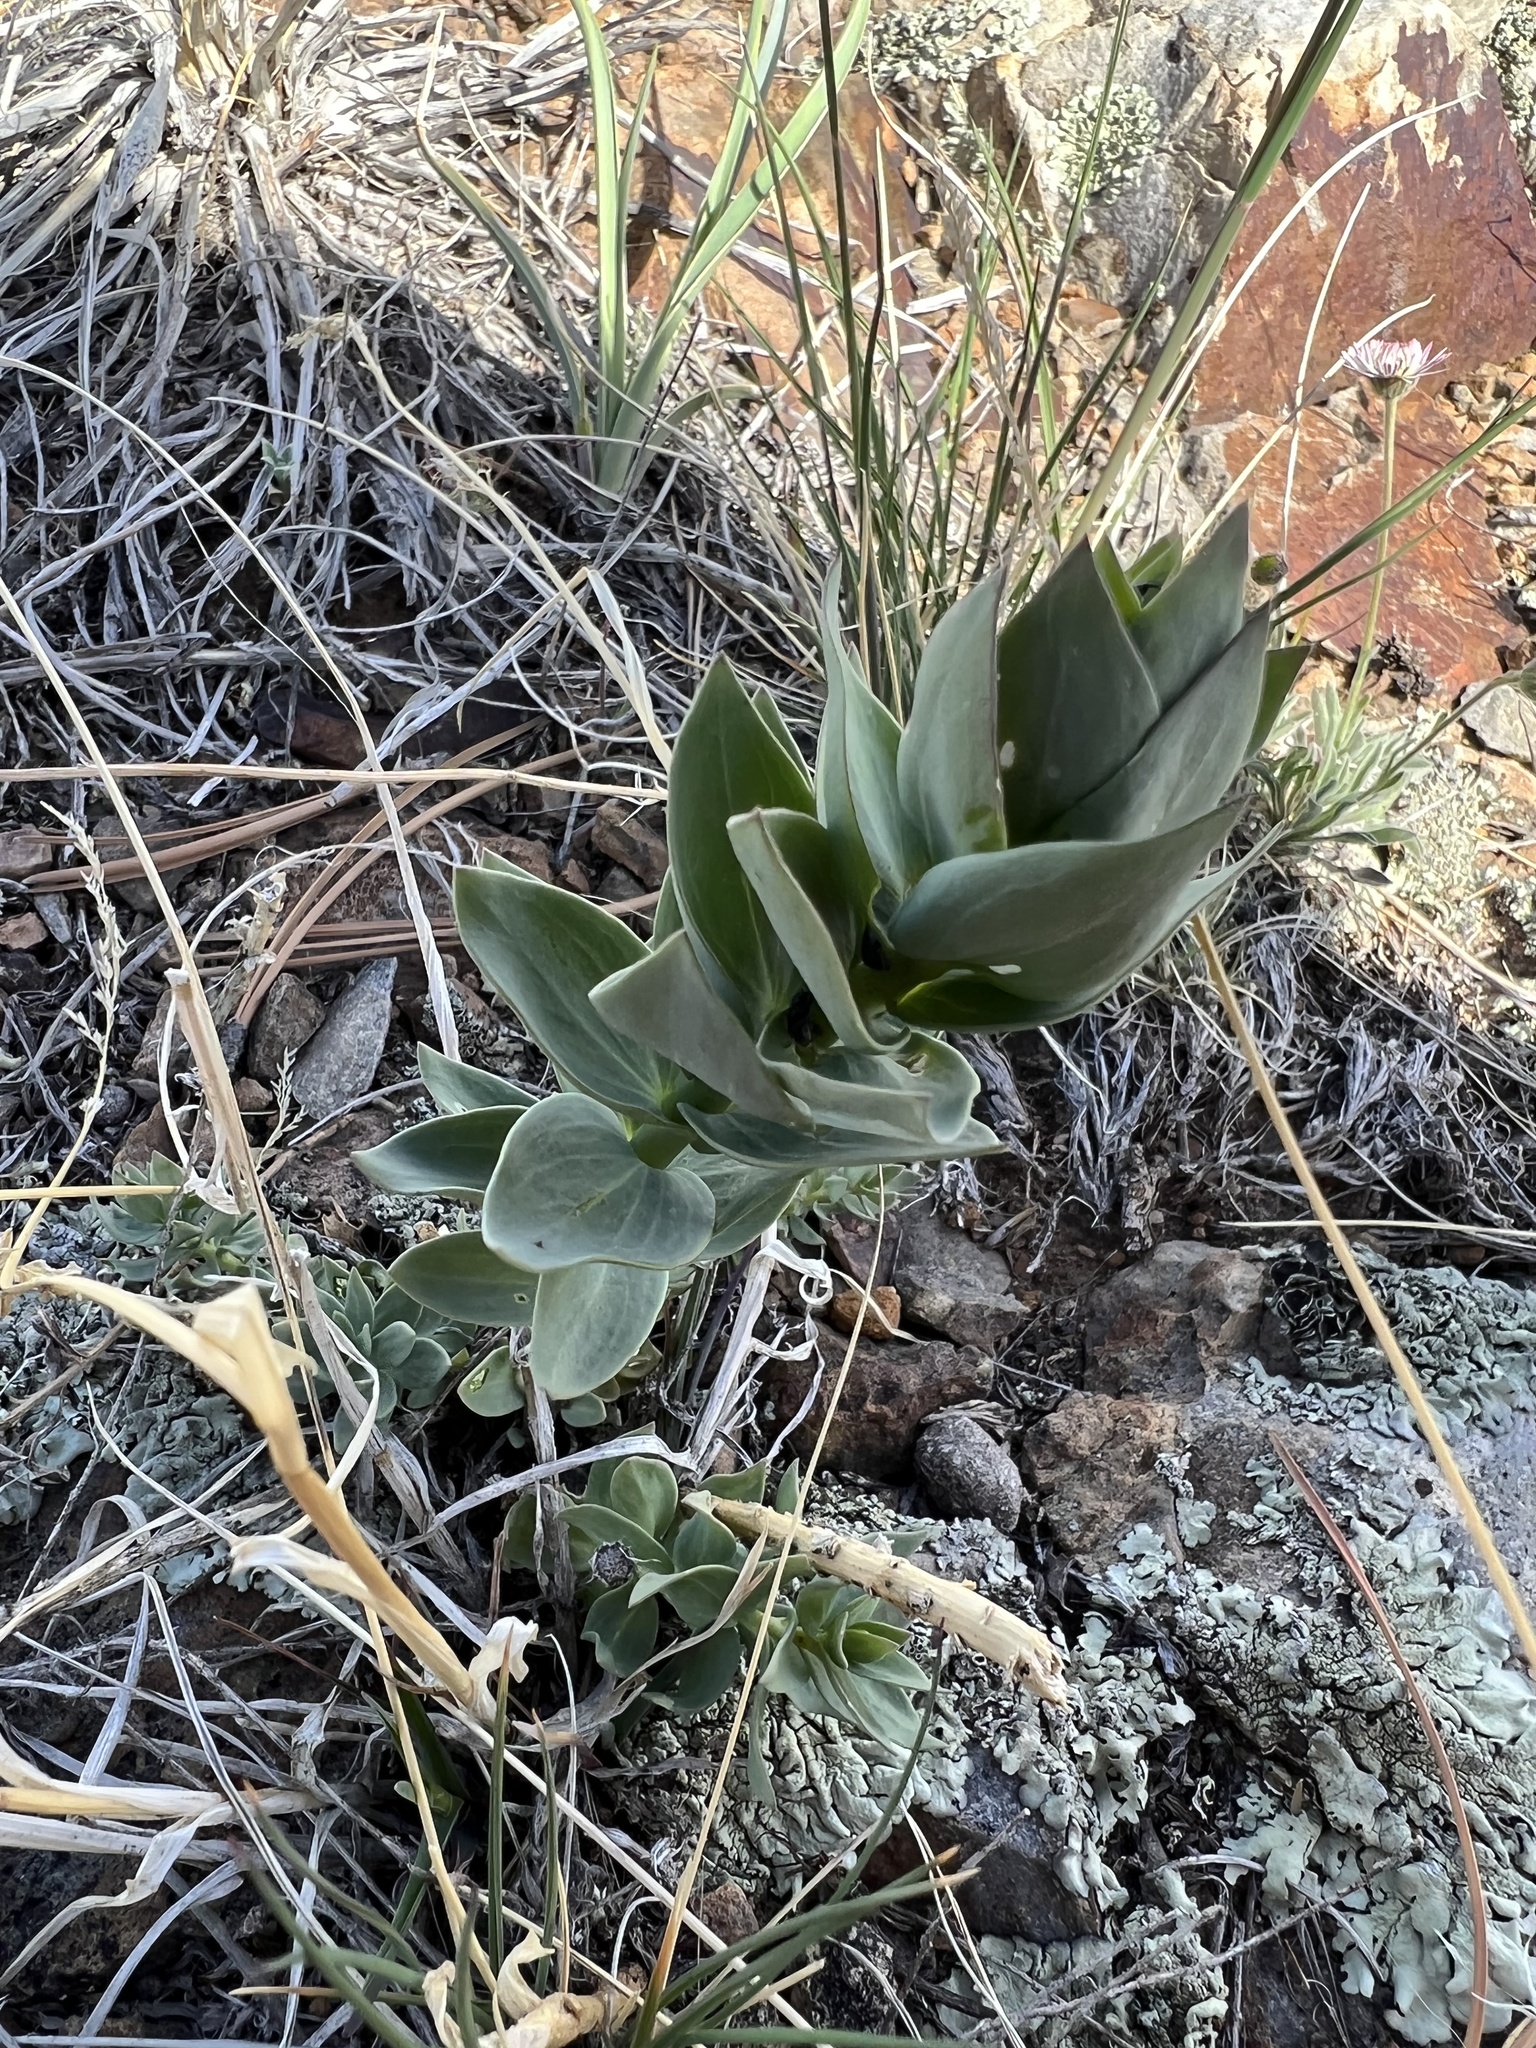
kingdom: Plantae
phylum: Tracheophyta
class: Magnoliopsida
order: Lamiales
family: Plantaginaceae
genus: Linaria
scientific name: Linaria dalmatica
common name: Dalmatian toadflax
